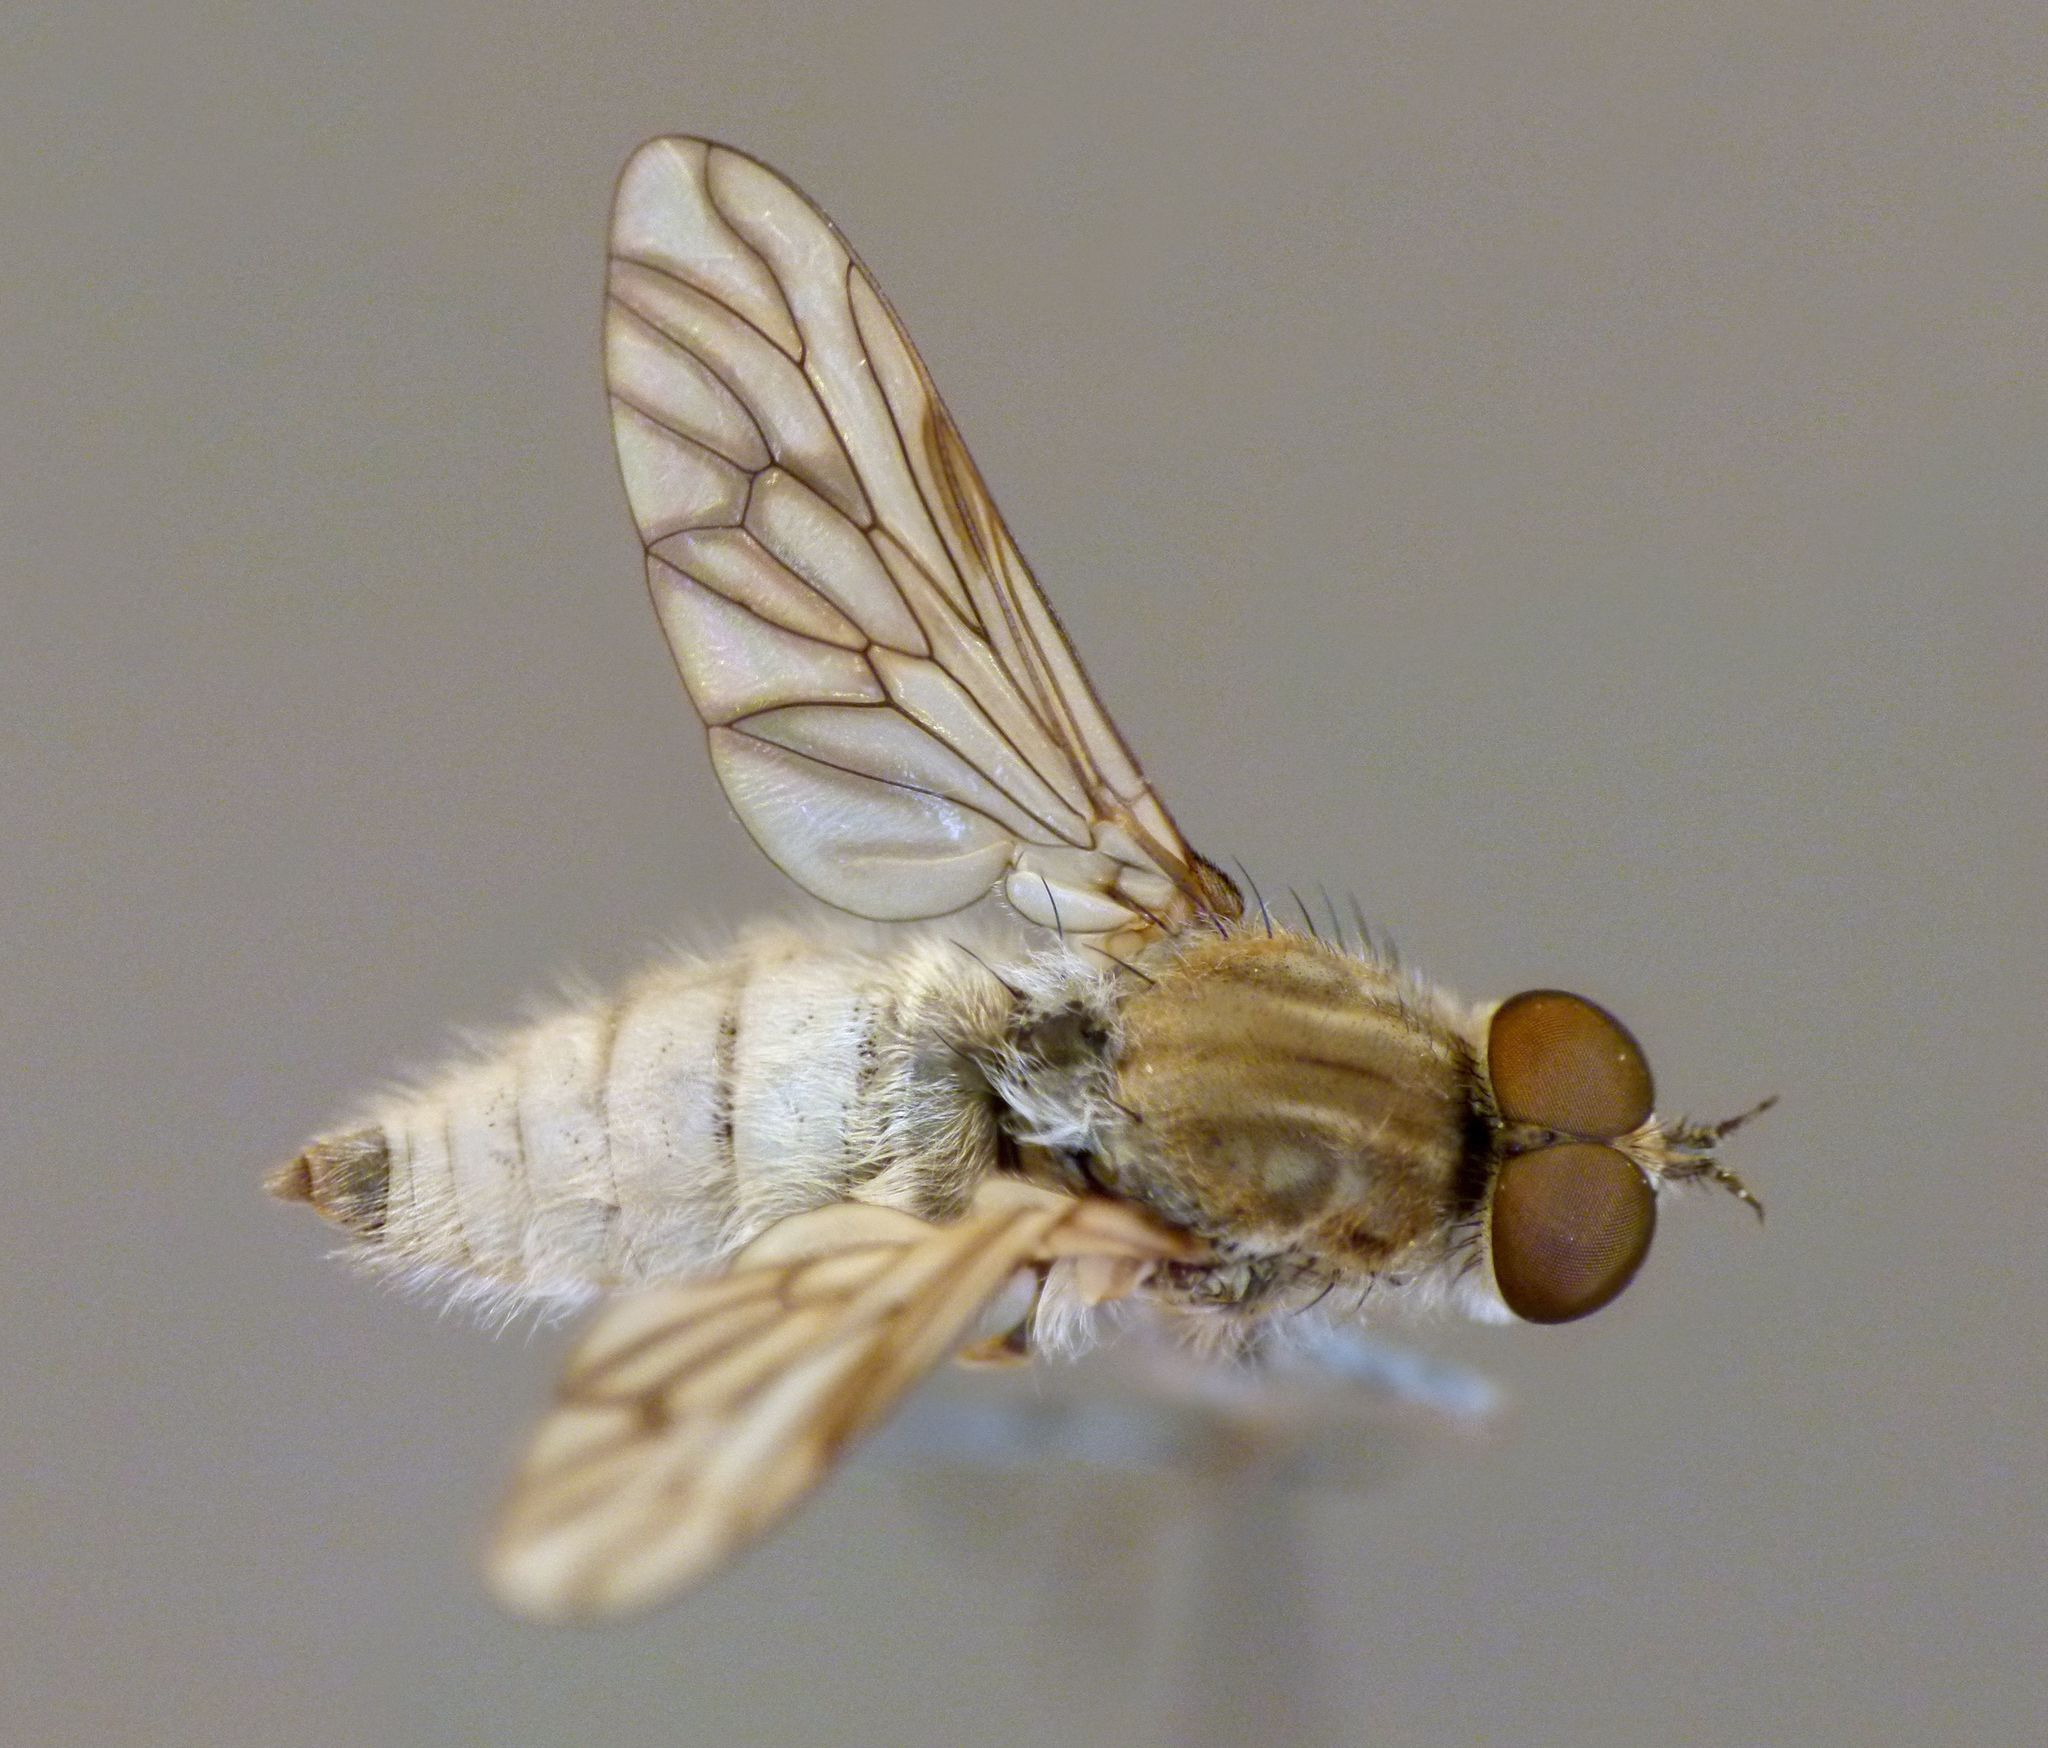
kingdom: Animalia
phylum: Arthropoda
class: Insecta
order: Diptera
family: Therevidae
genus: Anabarhynchus
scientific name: Anabarhynchus arenarius
